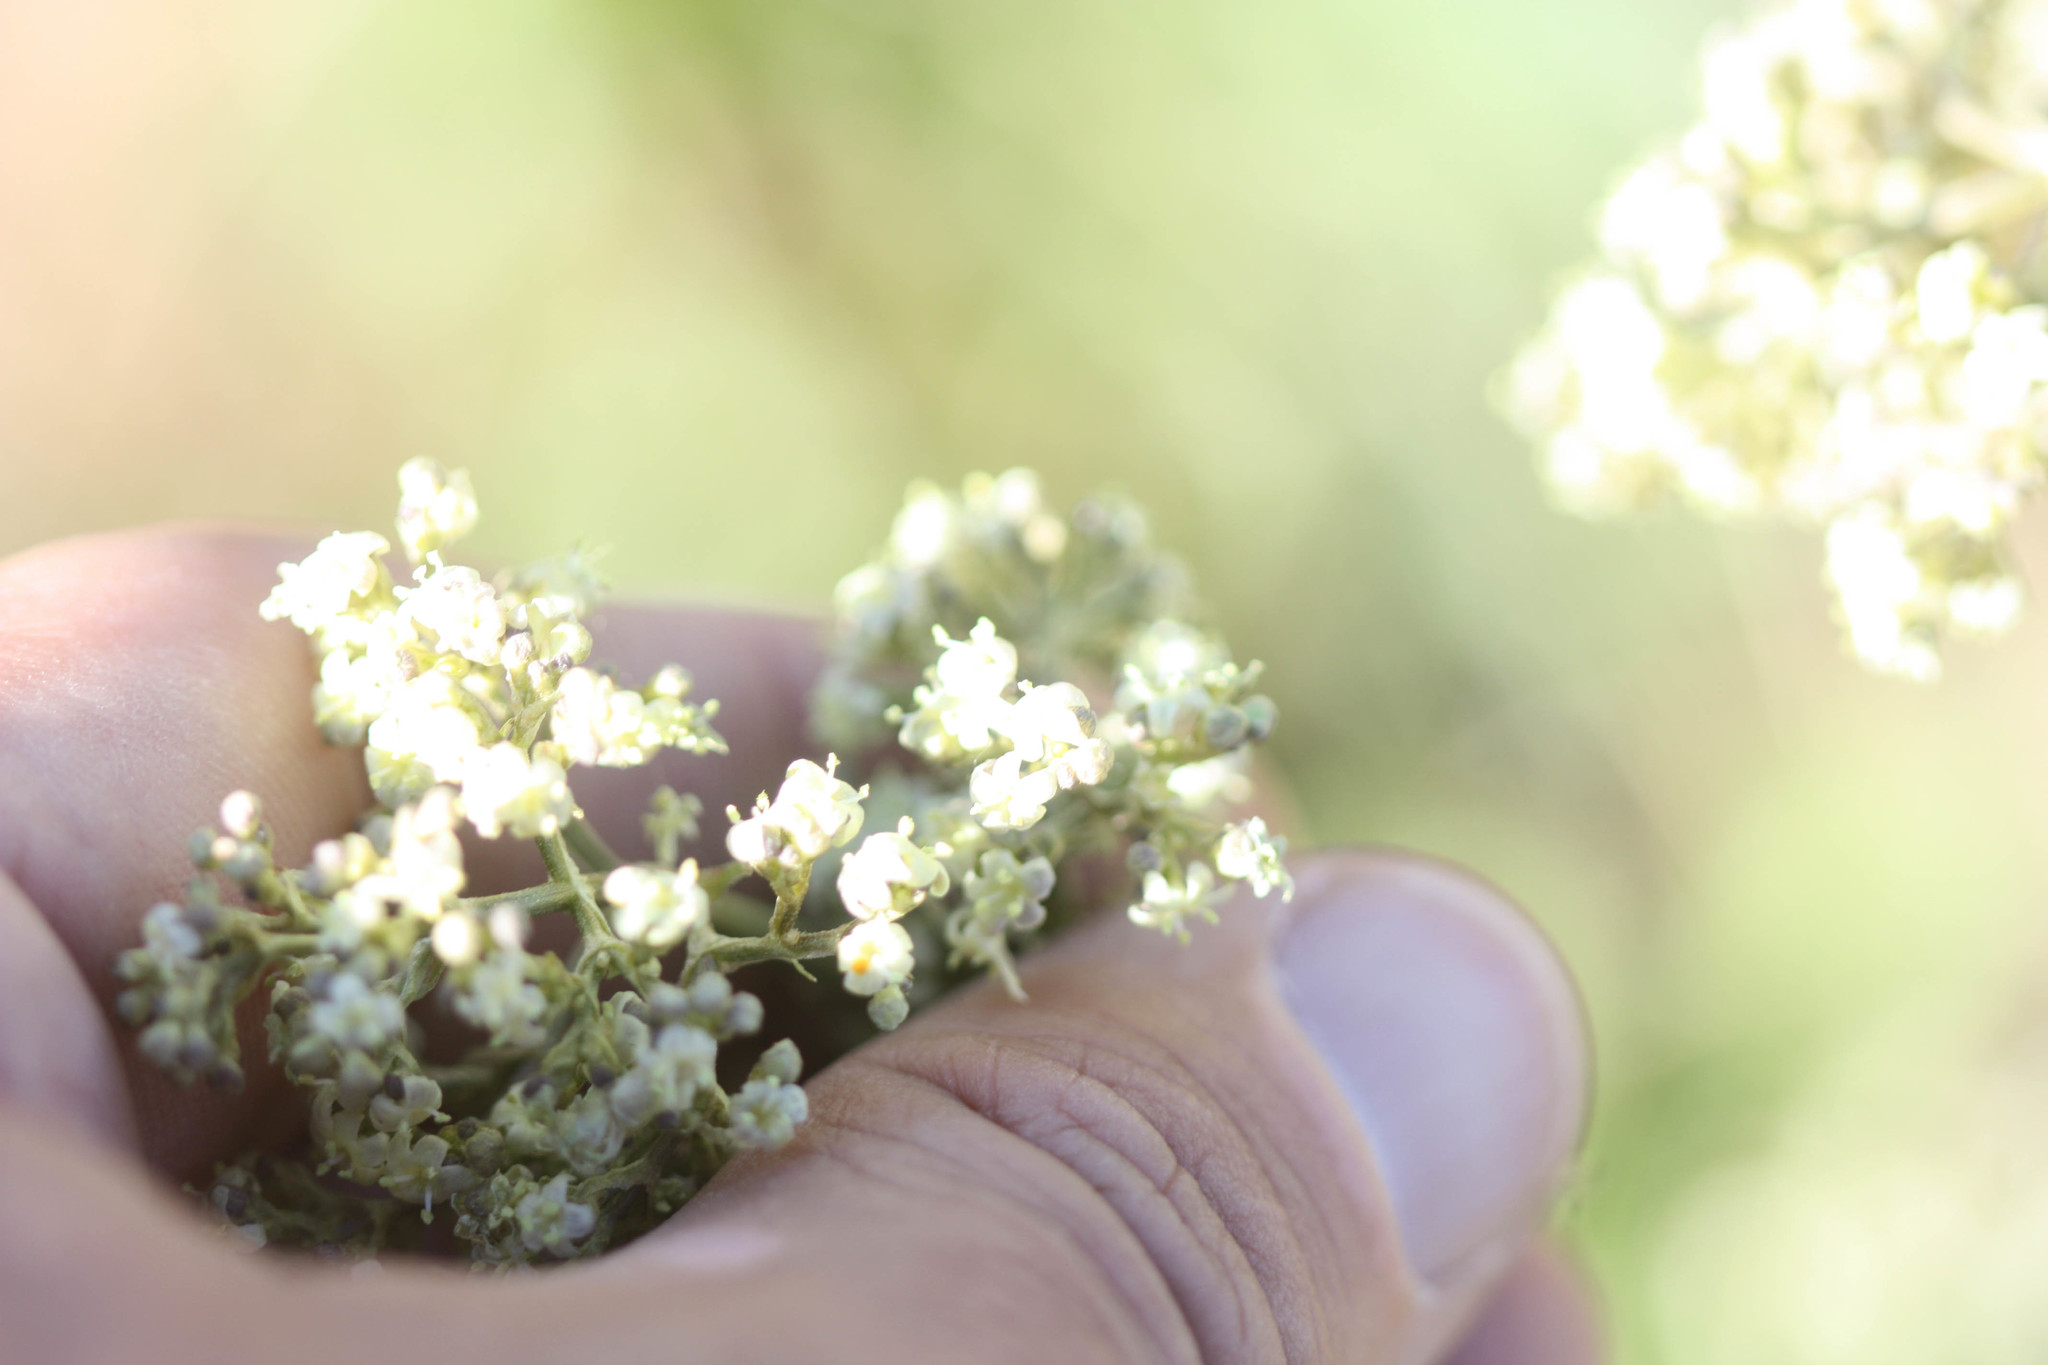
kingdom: Plantae
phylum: Tracheophyta
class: Magnoliopsida
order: Dipsacales
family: Caprifoliaceae
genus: Valeriana
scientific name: Valeriana edulis
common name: Taproot valerian
